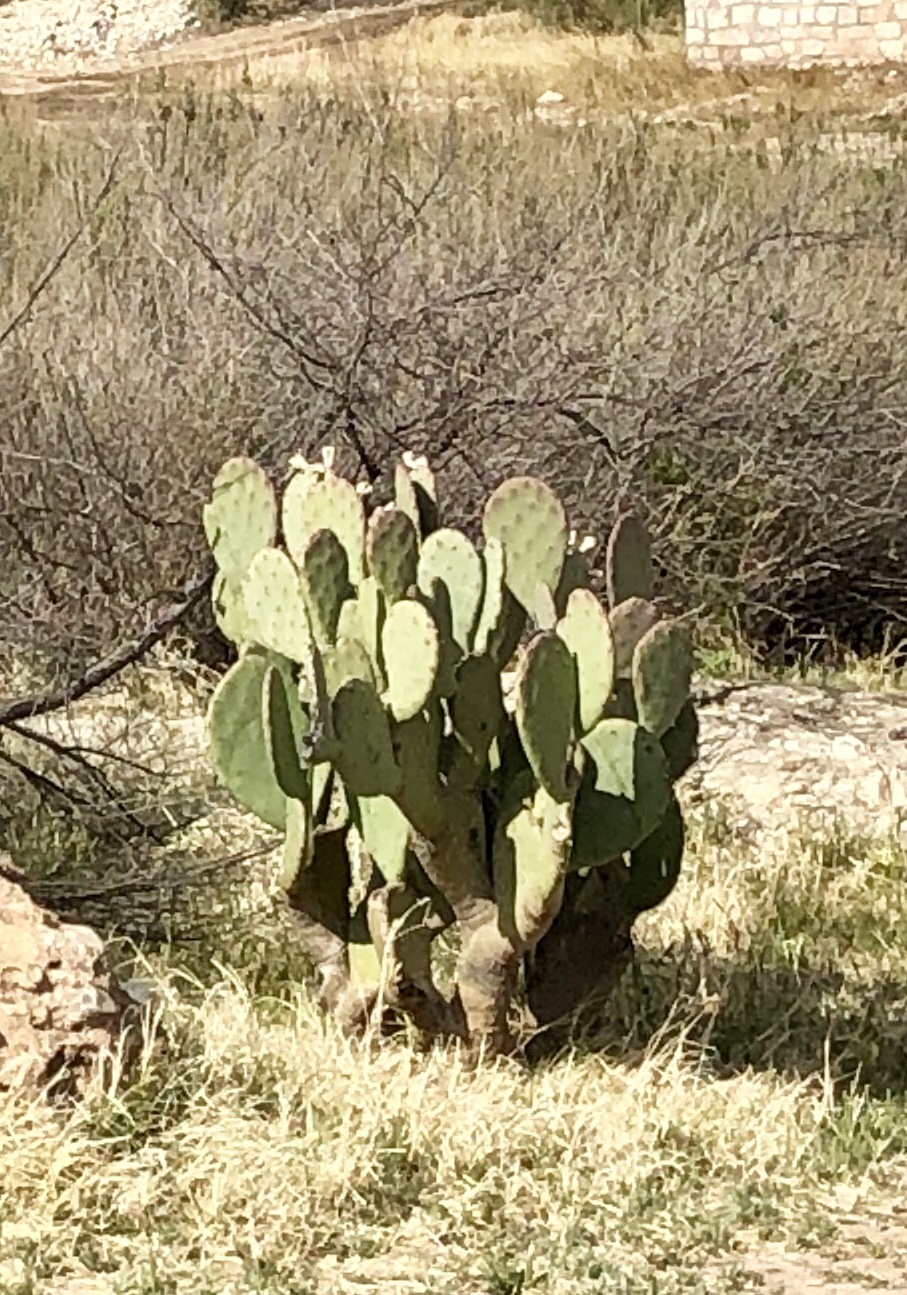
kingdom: Plantae
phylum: Tracheophyta
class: Magnoliopsida
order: Caryophyllales
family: Cactaceae
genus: Opuntia
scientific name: Opuntia engelmannii
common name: Cactus-apple
